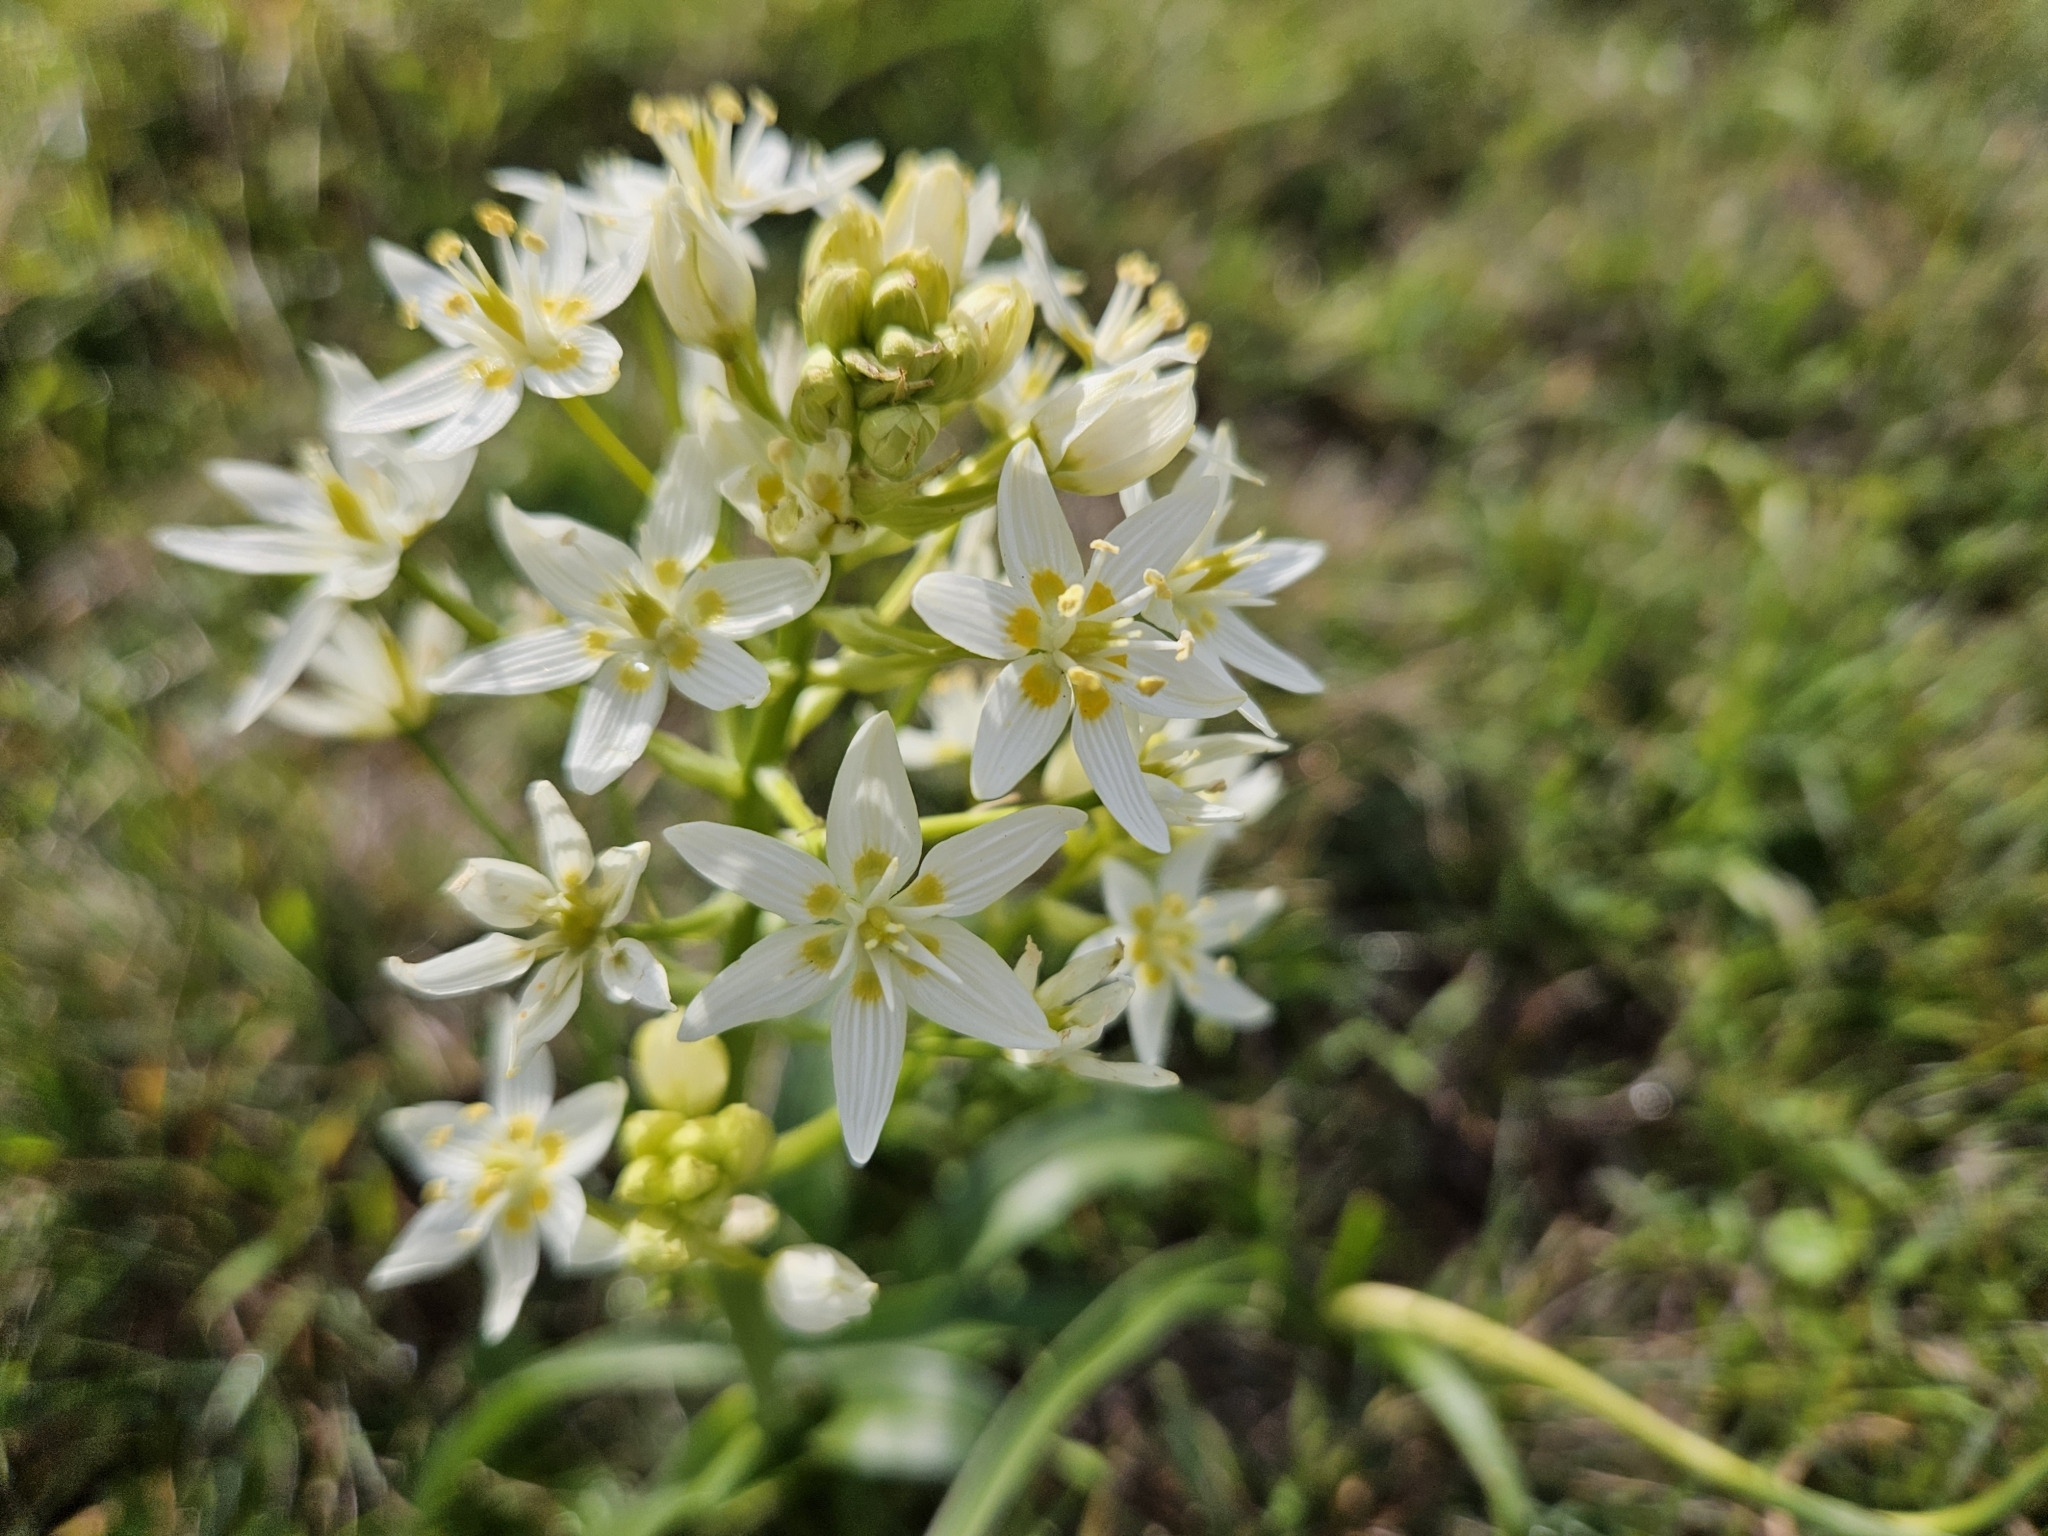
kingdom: Plantae
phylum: Tracheophyta
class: Liliopsida
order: Liliales
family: Melanthiaceae
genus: Toxicoscordion
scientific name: Toxicoscordion fremontii
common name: Fremont's death camas
